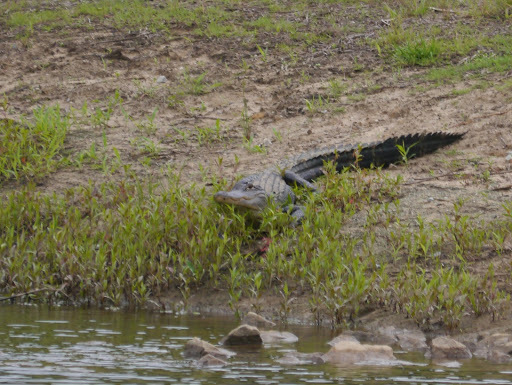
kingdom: Animalia
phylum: Chordata
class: Crocodylia
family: Alligatoridae
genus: Alligator
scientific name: Alligator mississippiensis
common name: American alligator
